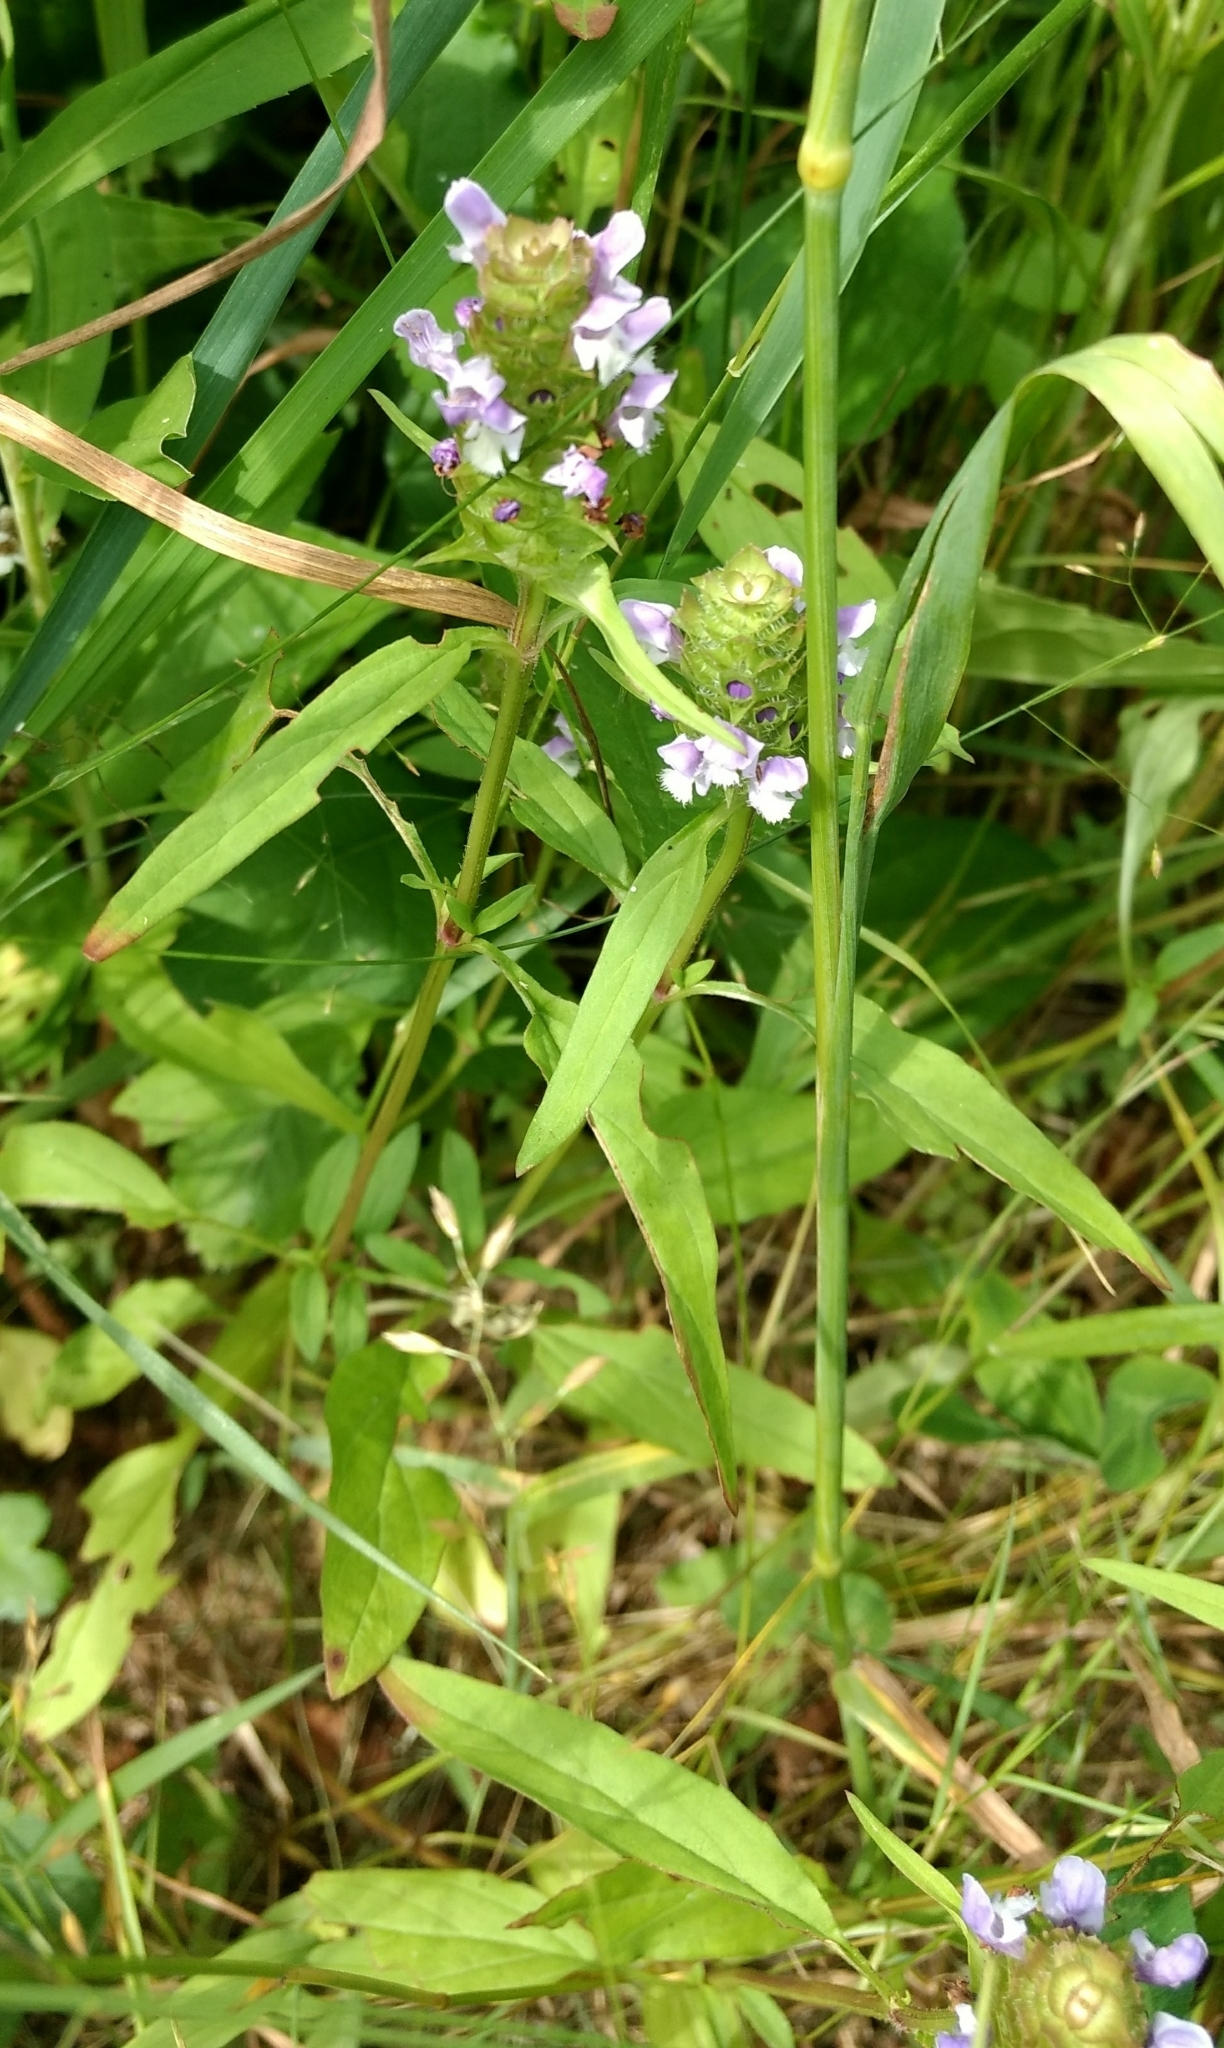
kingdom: Plantae
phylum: Tracheophyta
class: Magnoliopsida
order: Lamiales
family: Lamiaceae
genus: Prunella
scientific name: Prunella vulgaris
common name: Heal-all
